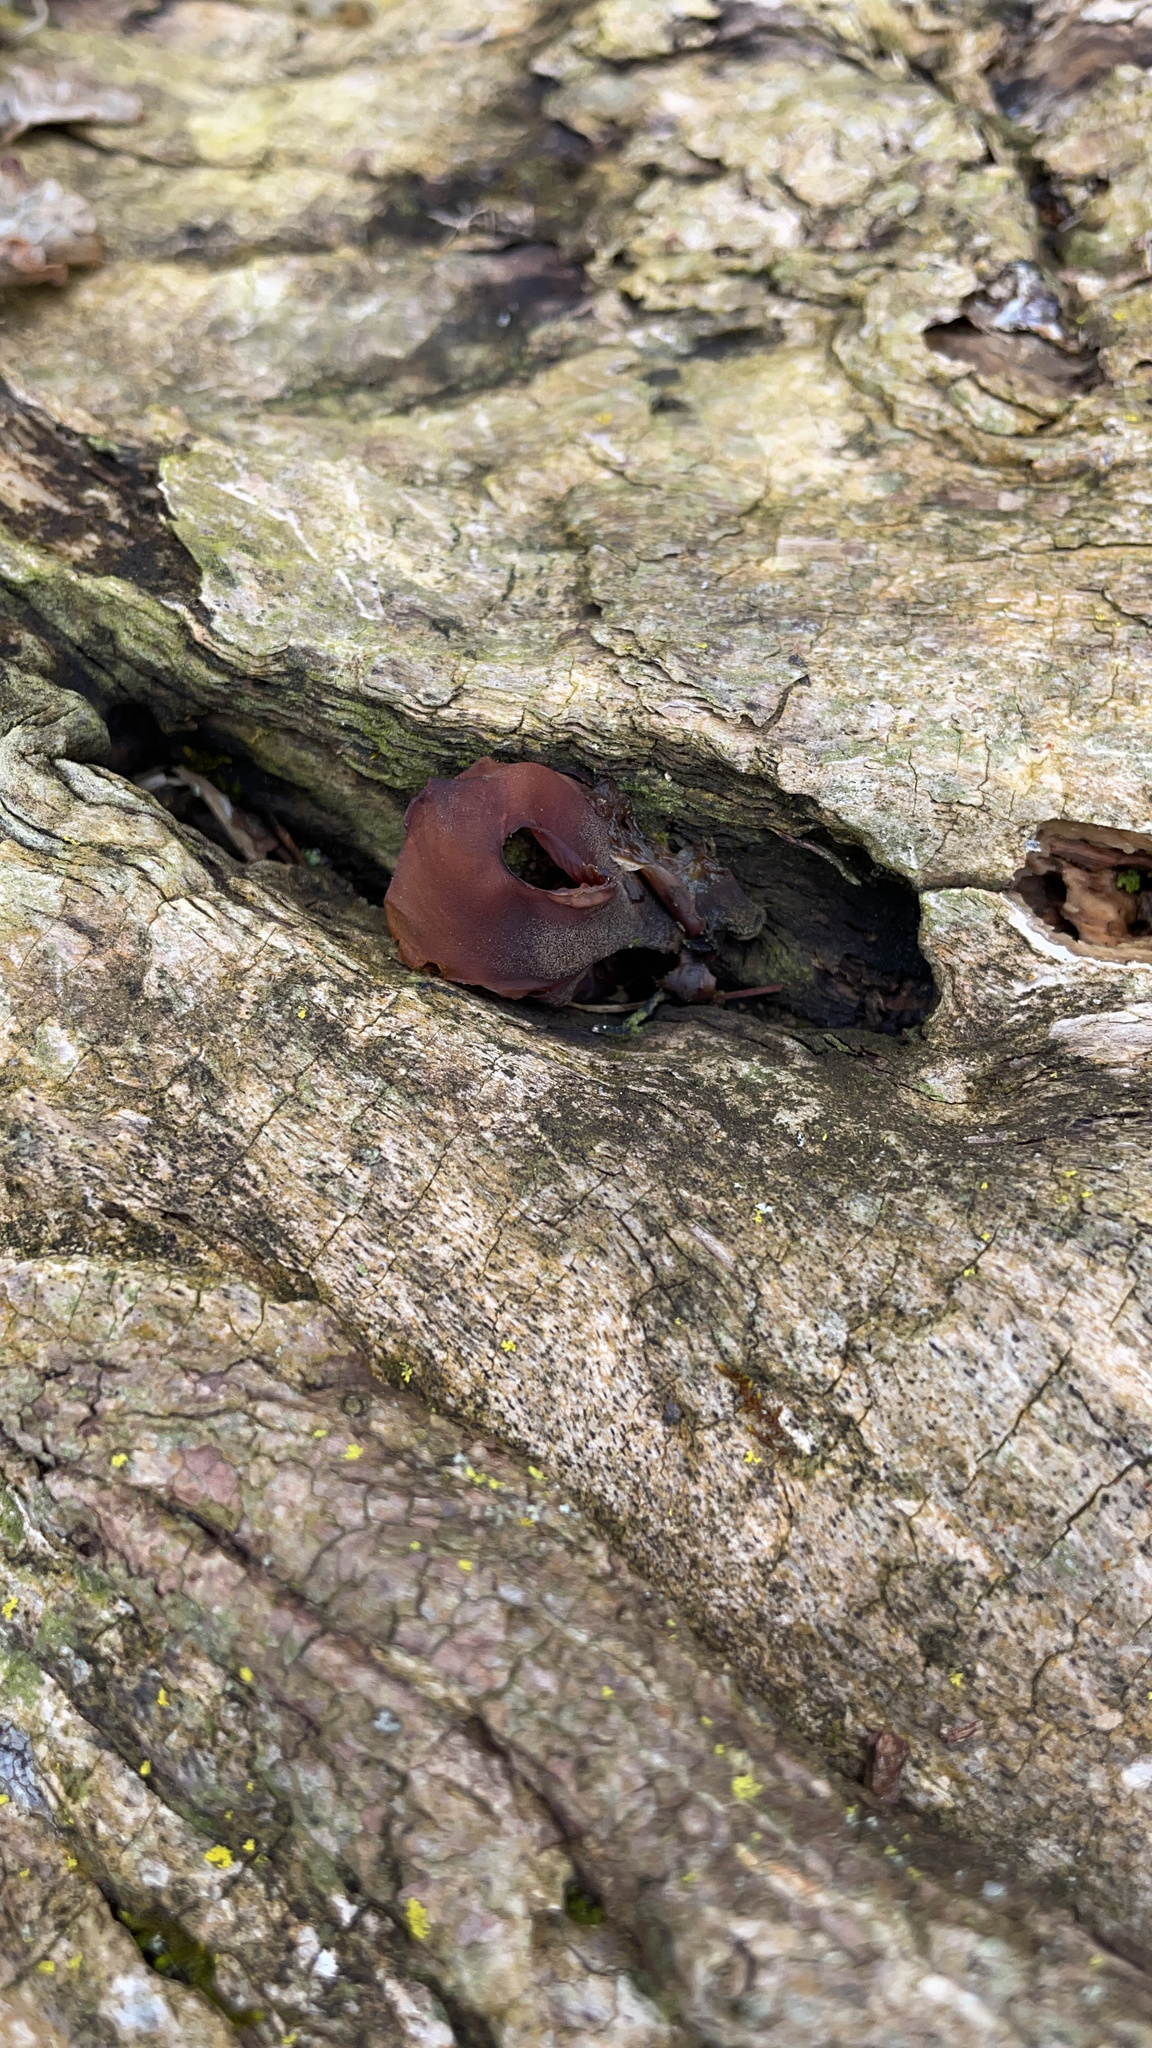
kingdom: Fungi
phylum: Basidiomycota
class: Agaricomycetes
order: Auriculariales
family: Auriculariaceae
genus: Auricularia
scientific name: Auricularia auricula-judae
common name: Jelly ear
